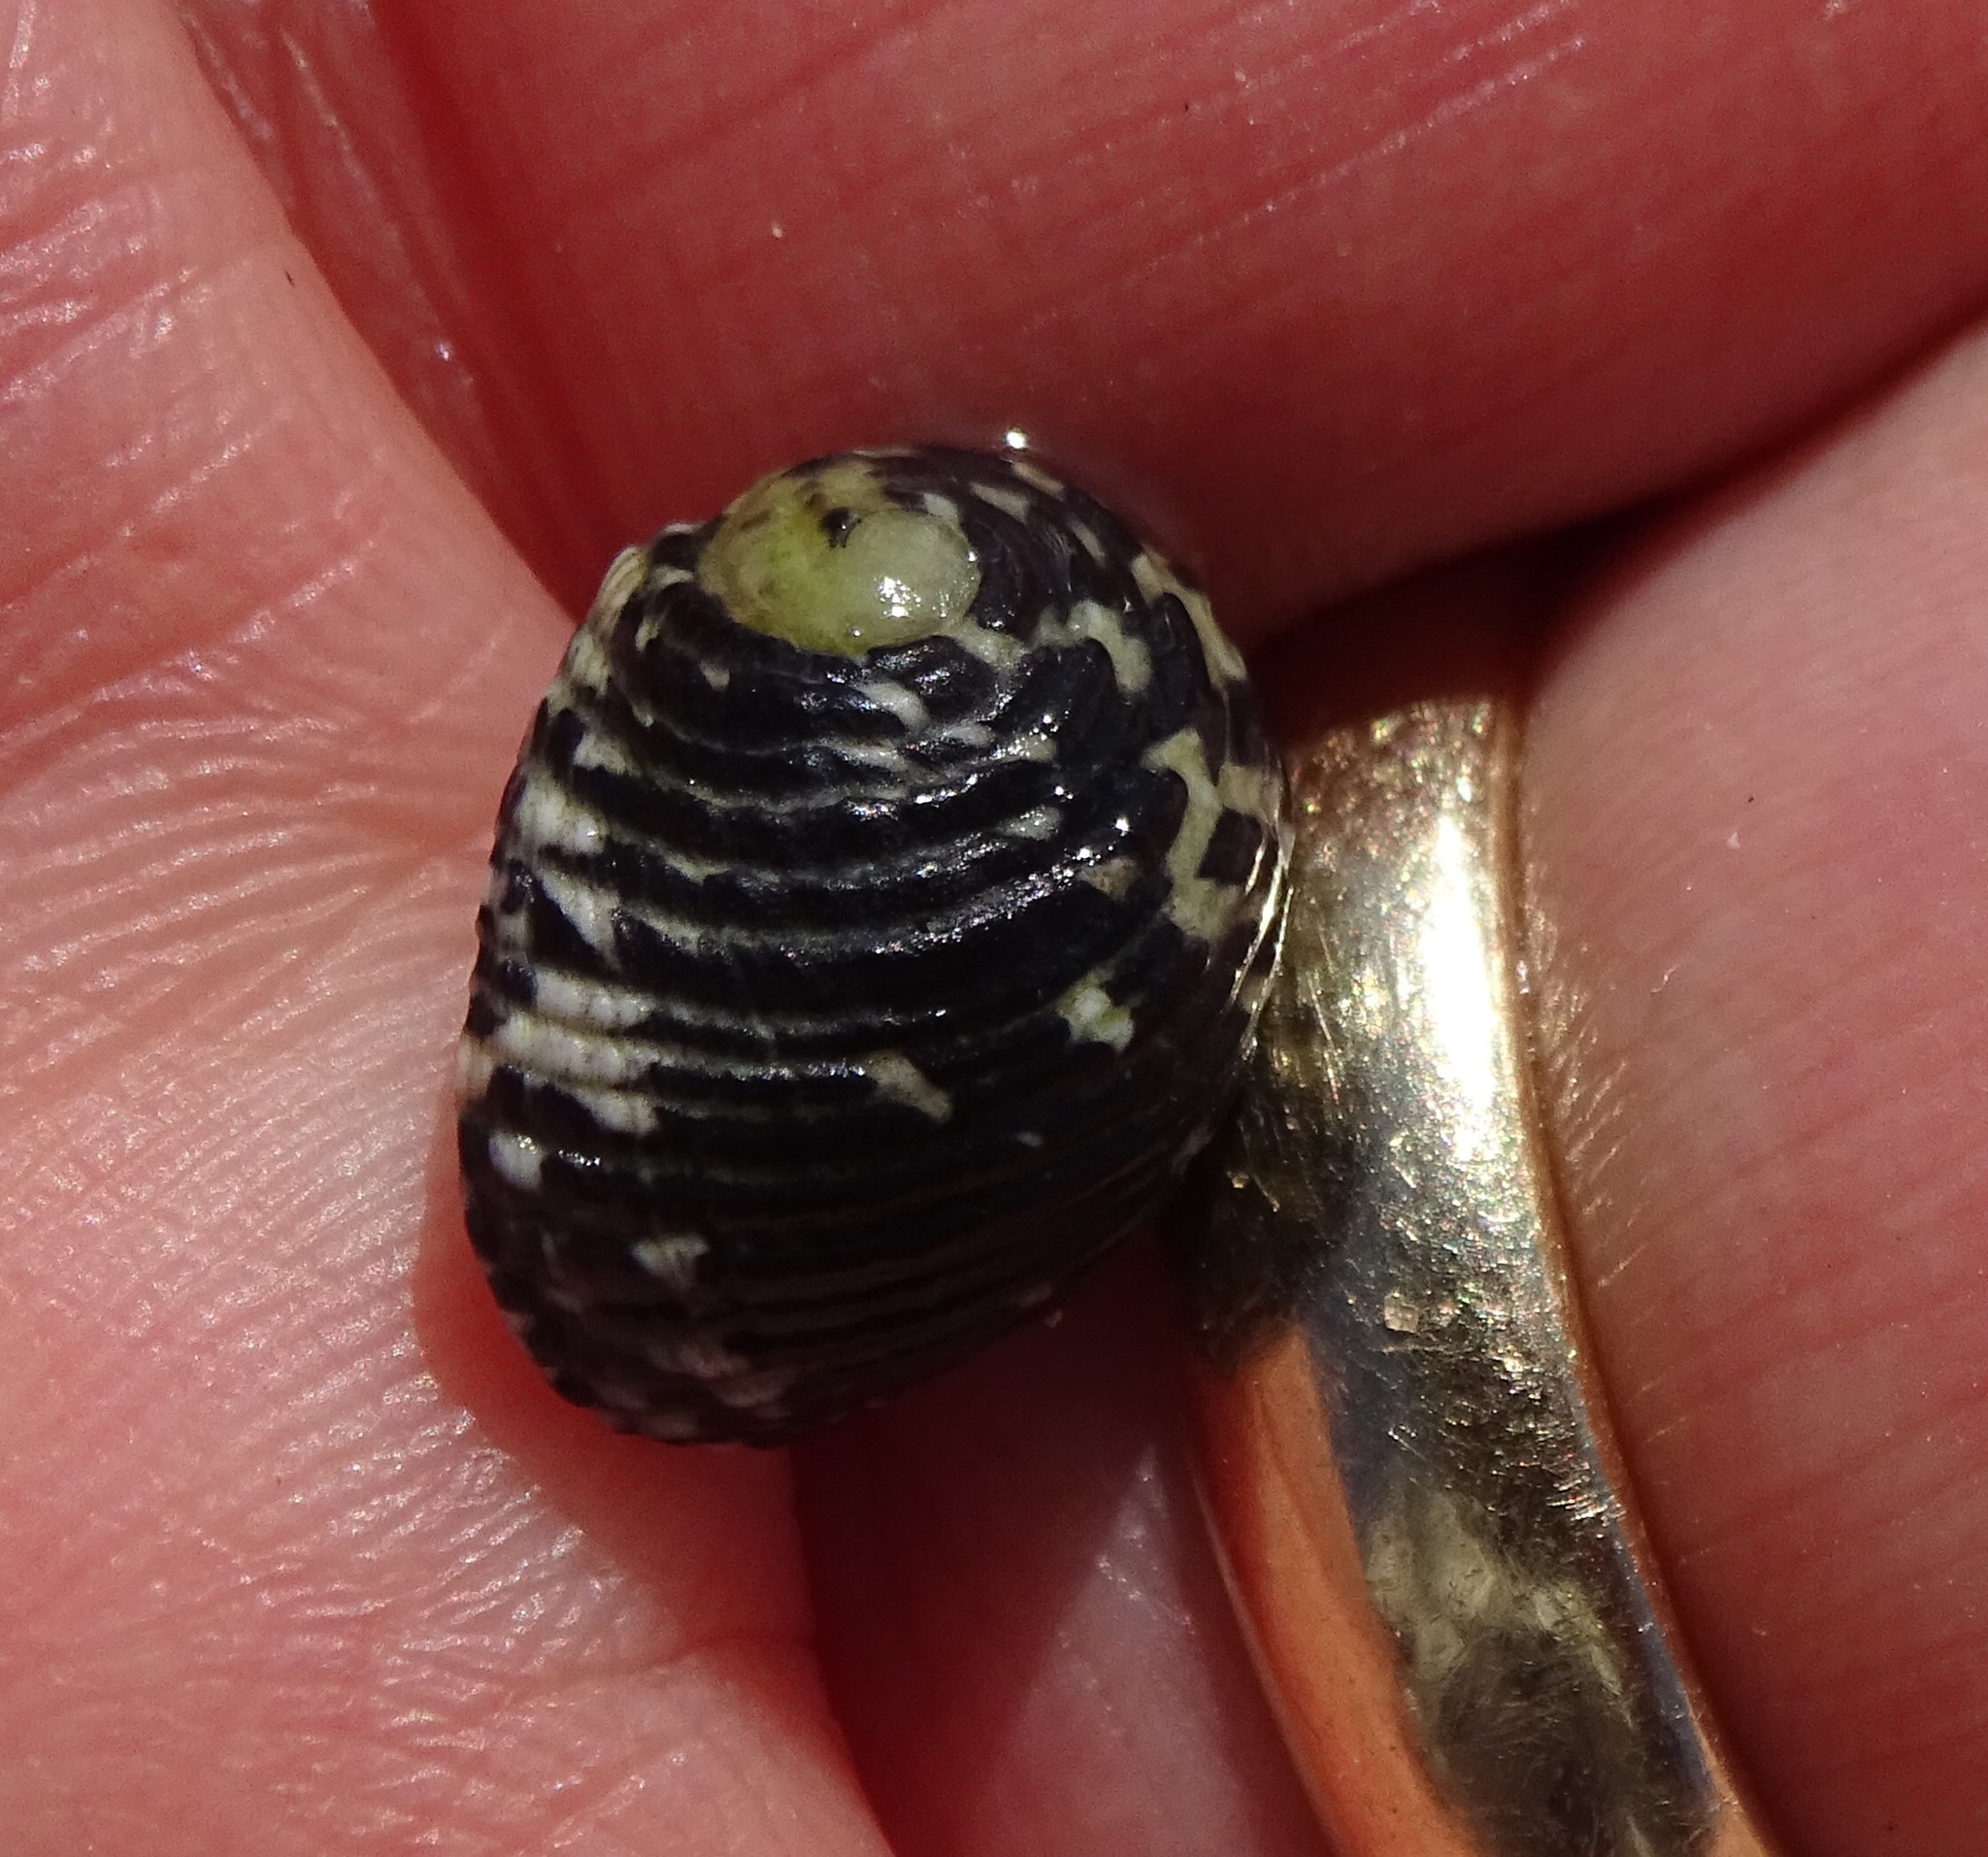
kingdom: Animalia
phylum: Mollusca
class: Gastropoda
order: Cycloneritida
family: Neritidae
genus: Nerita
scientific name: Nerita tessellata
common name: Checkered nerite
